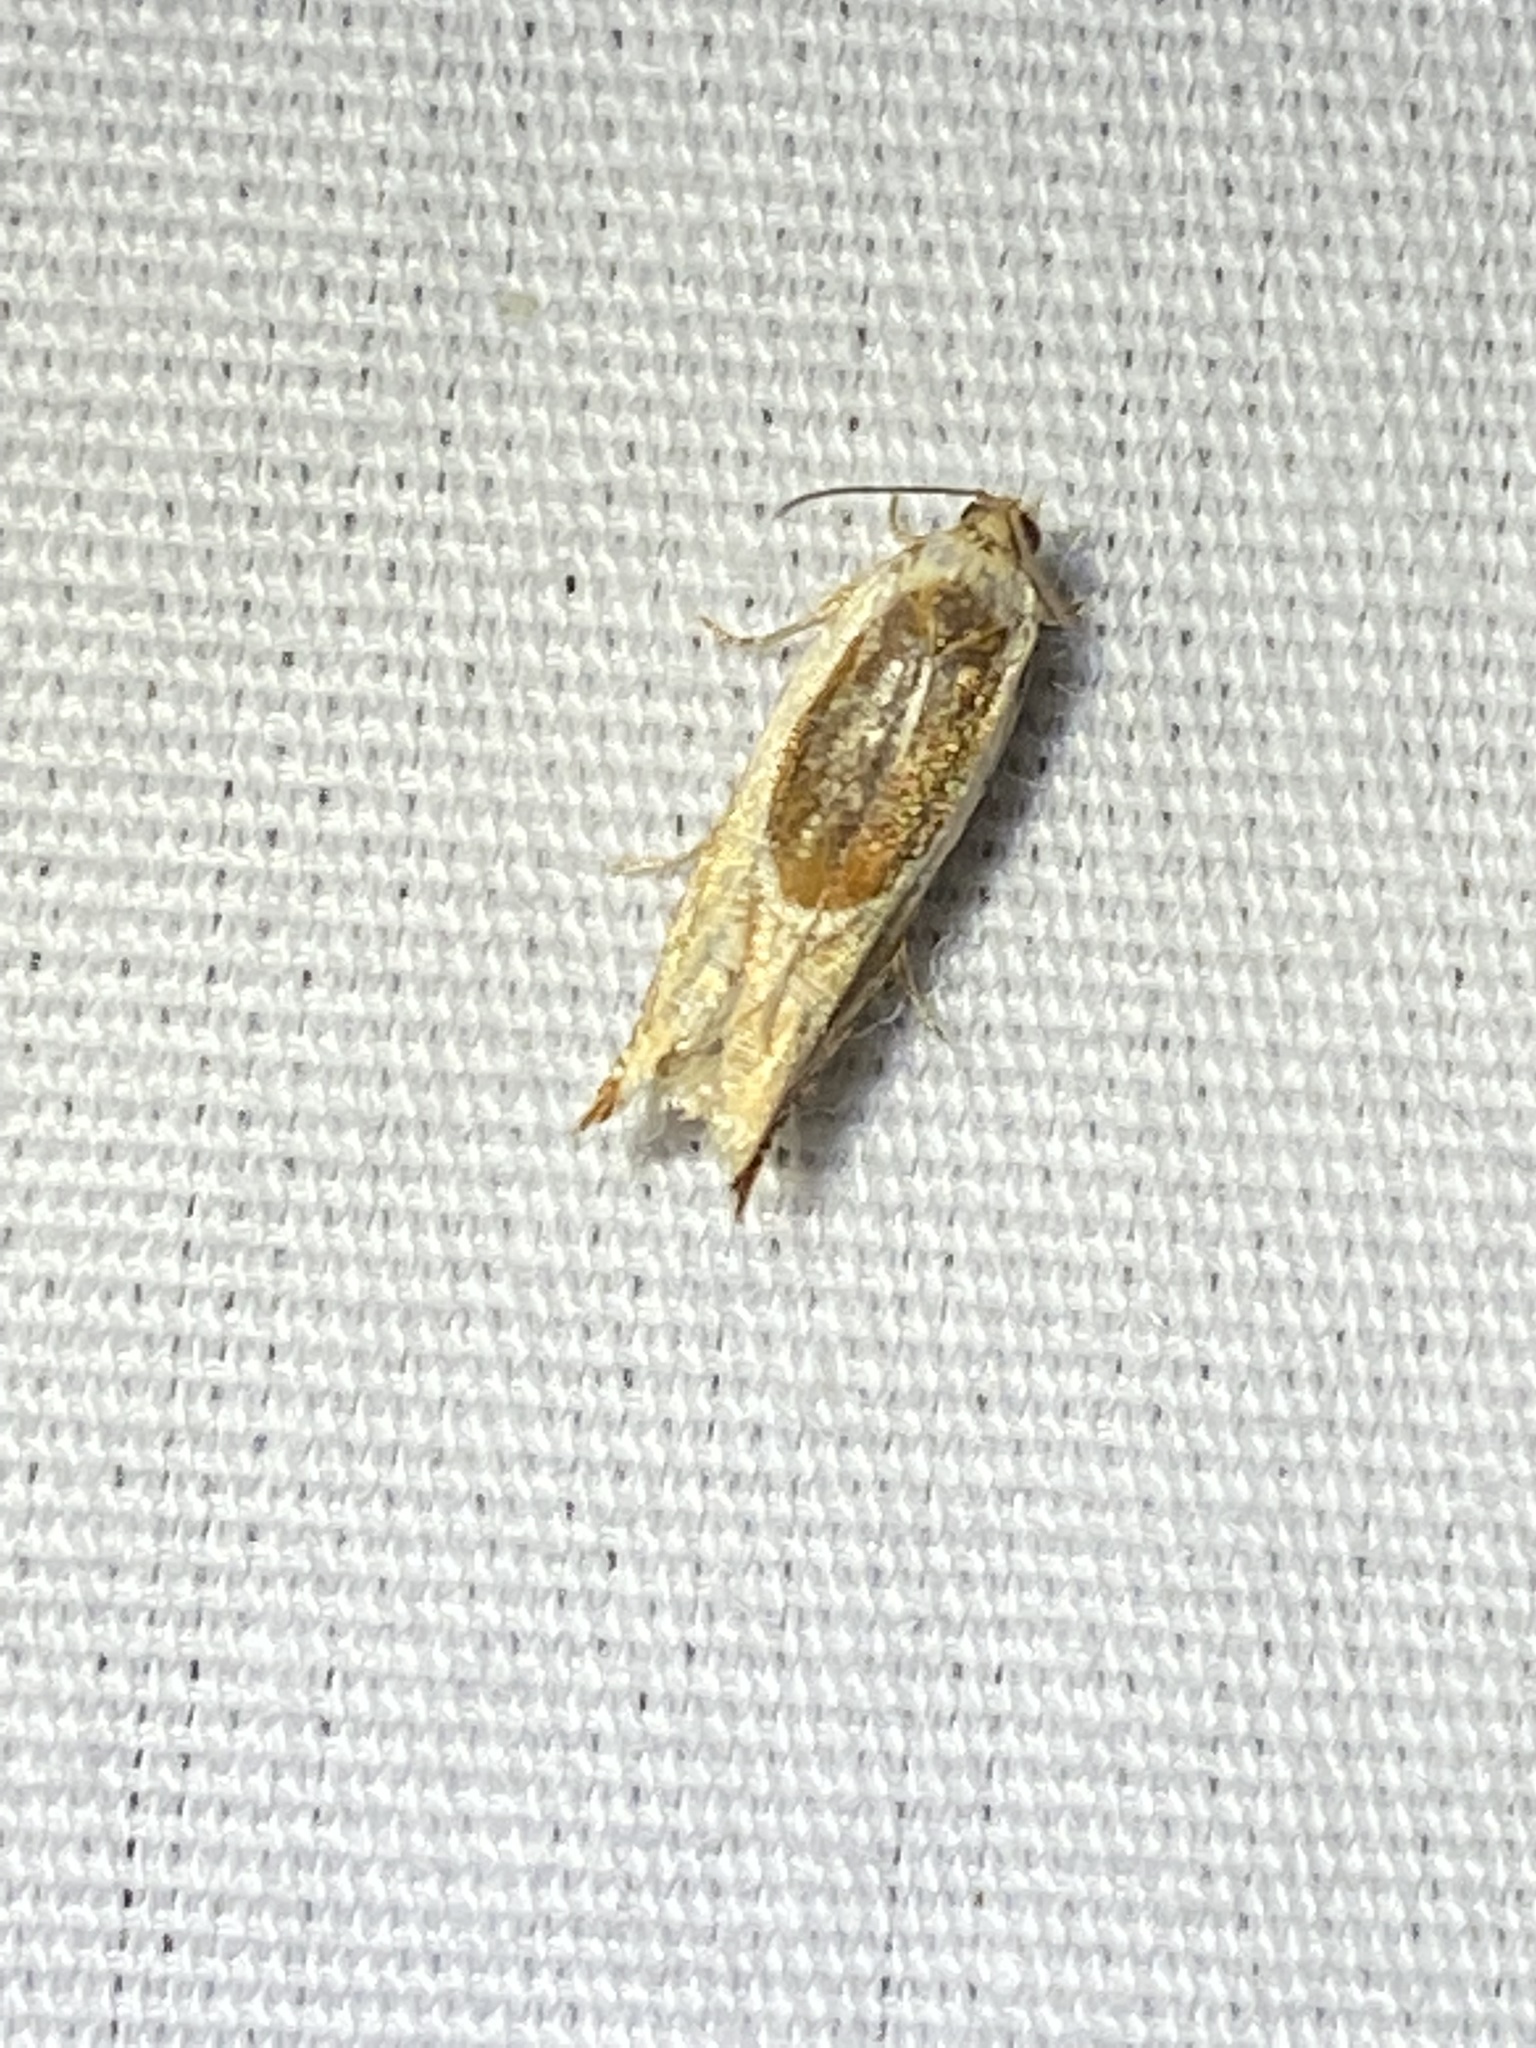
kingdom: Animalia
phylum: Arthropoda
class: Insecta
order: Lepidoptera
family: Tortricidae
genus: Ancylis
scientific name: Ancylis burgessiana
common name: Oak leaffolder moth
